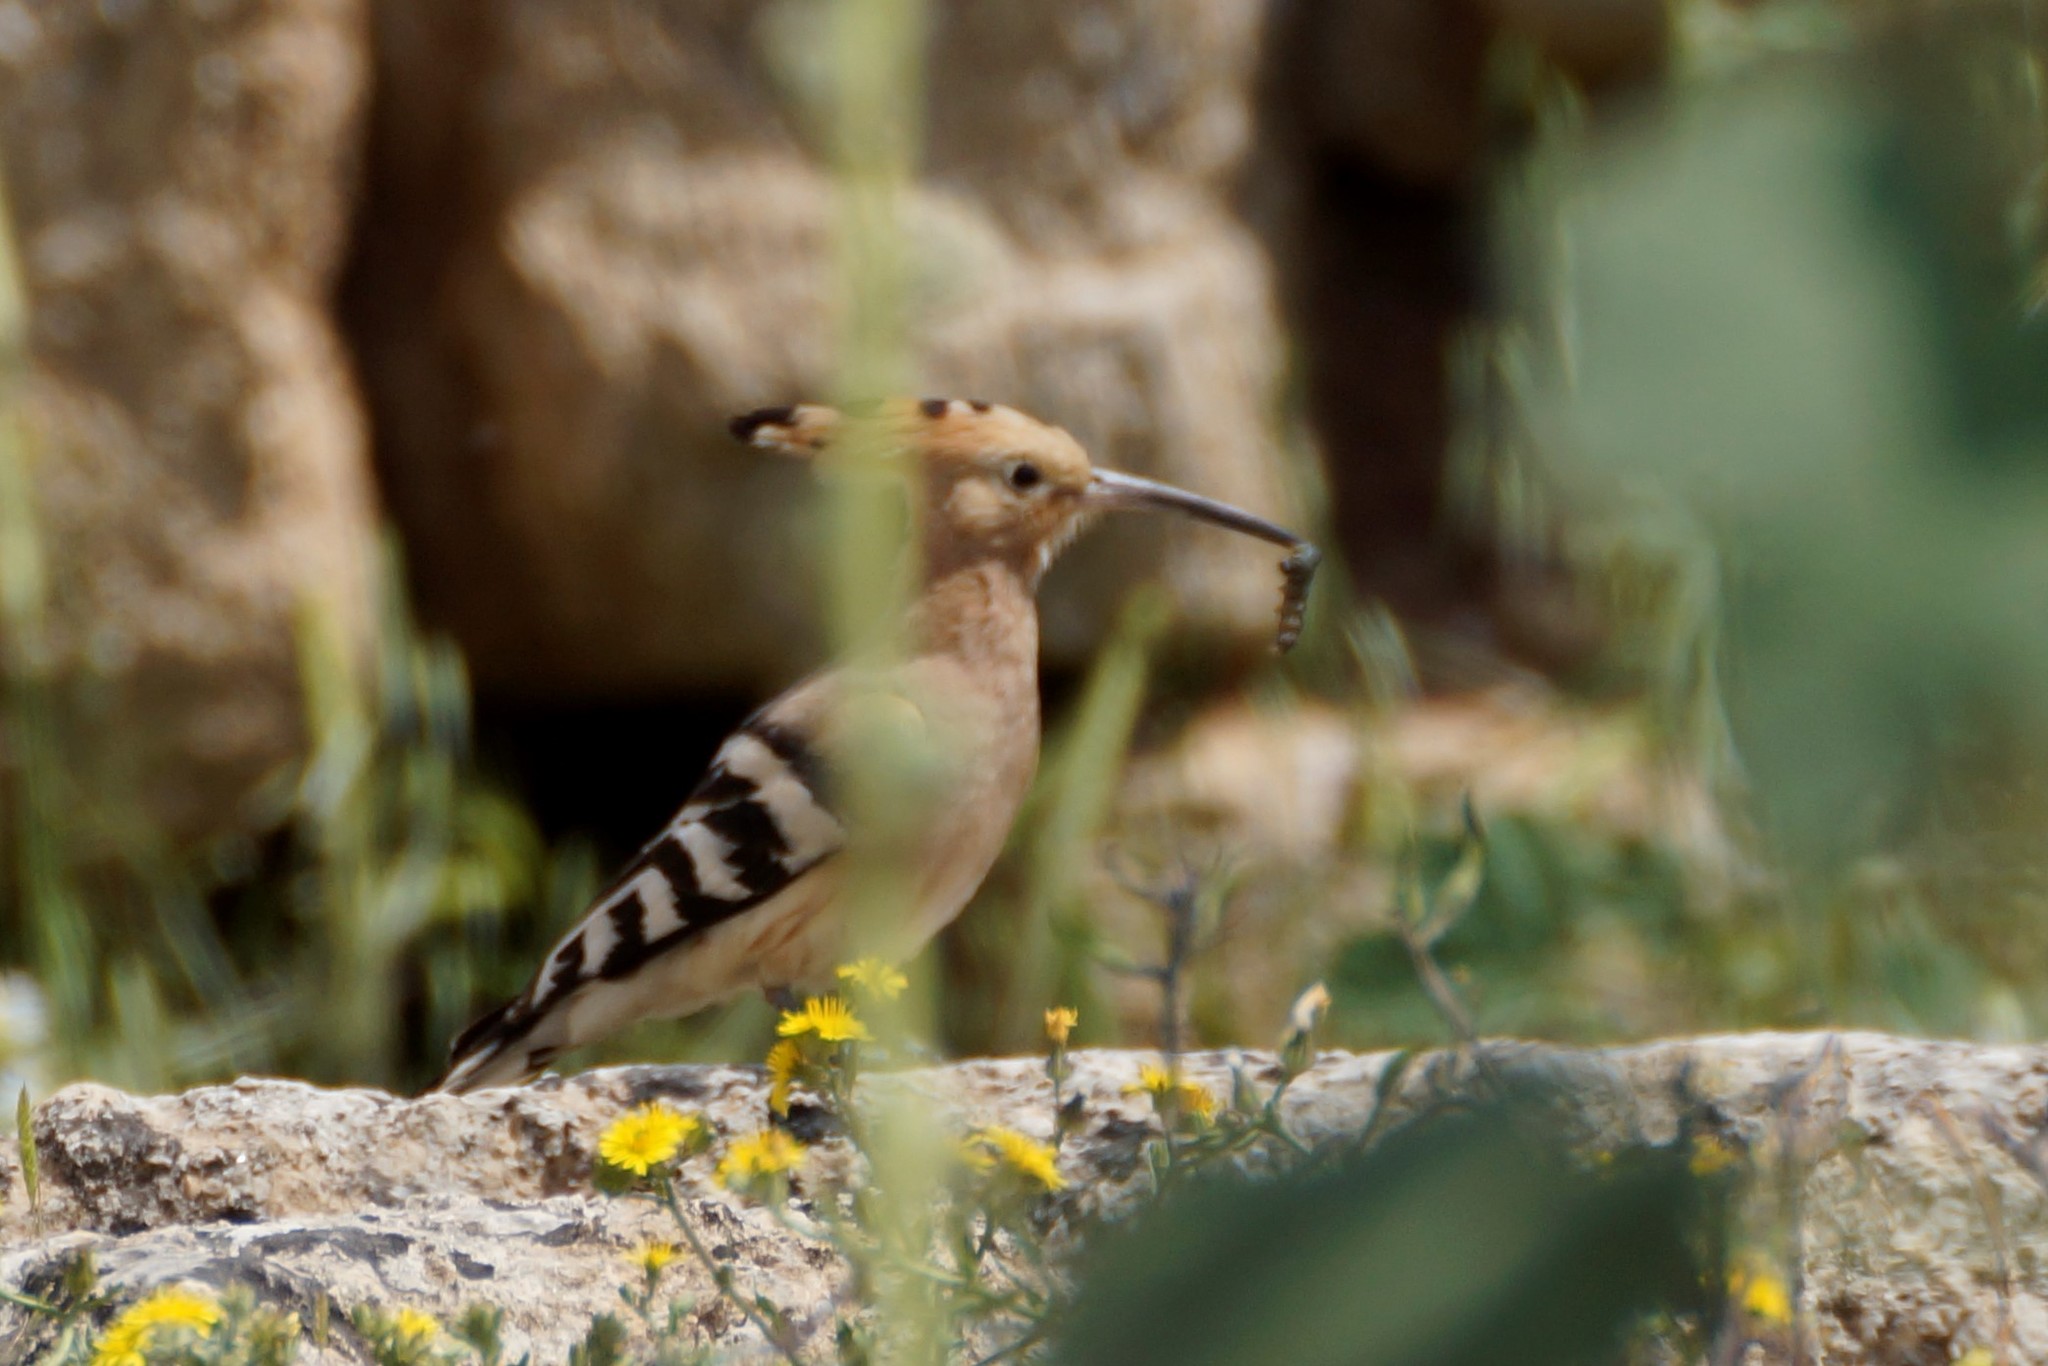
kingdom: Animalia
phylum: Chordata
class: Aves
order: Bucerotiformes
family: Upupidae
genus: Upupa
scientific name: Upupa epops
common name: Eurasian hoopoe
